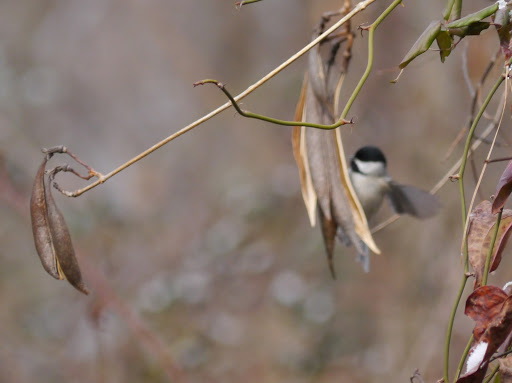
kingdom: Animalia
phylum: Chordata
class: Aves
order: Passeriformes
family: Paridae
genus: Poecile
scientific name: Poecile carolinensis
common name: Carolina chickadee
